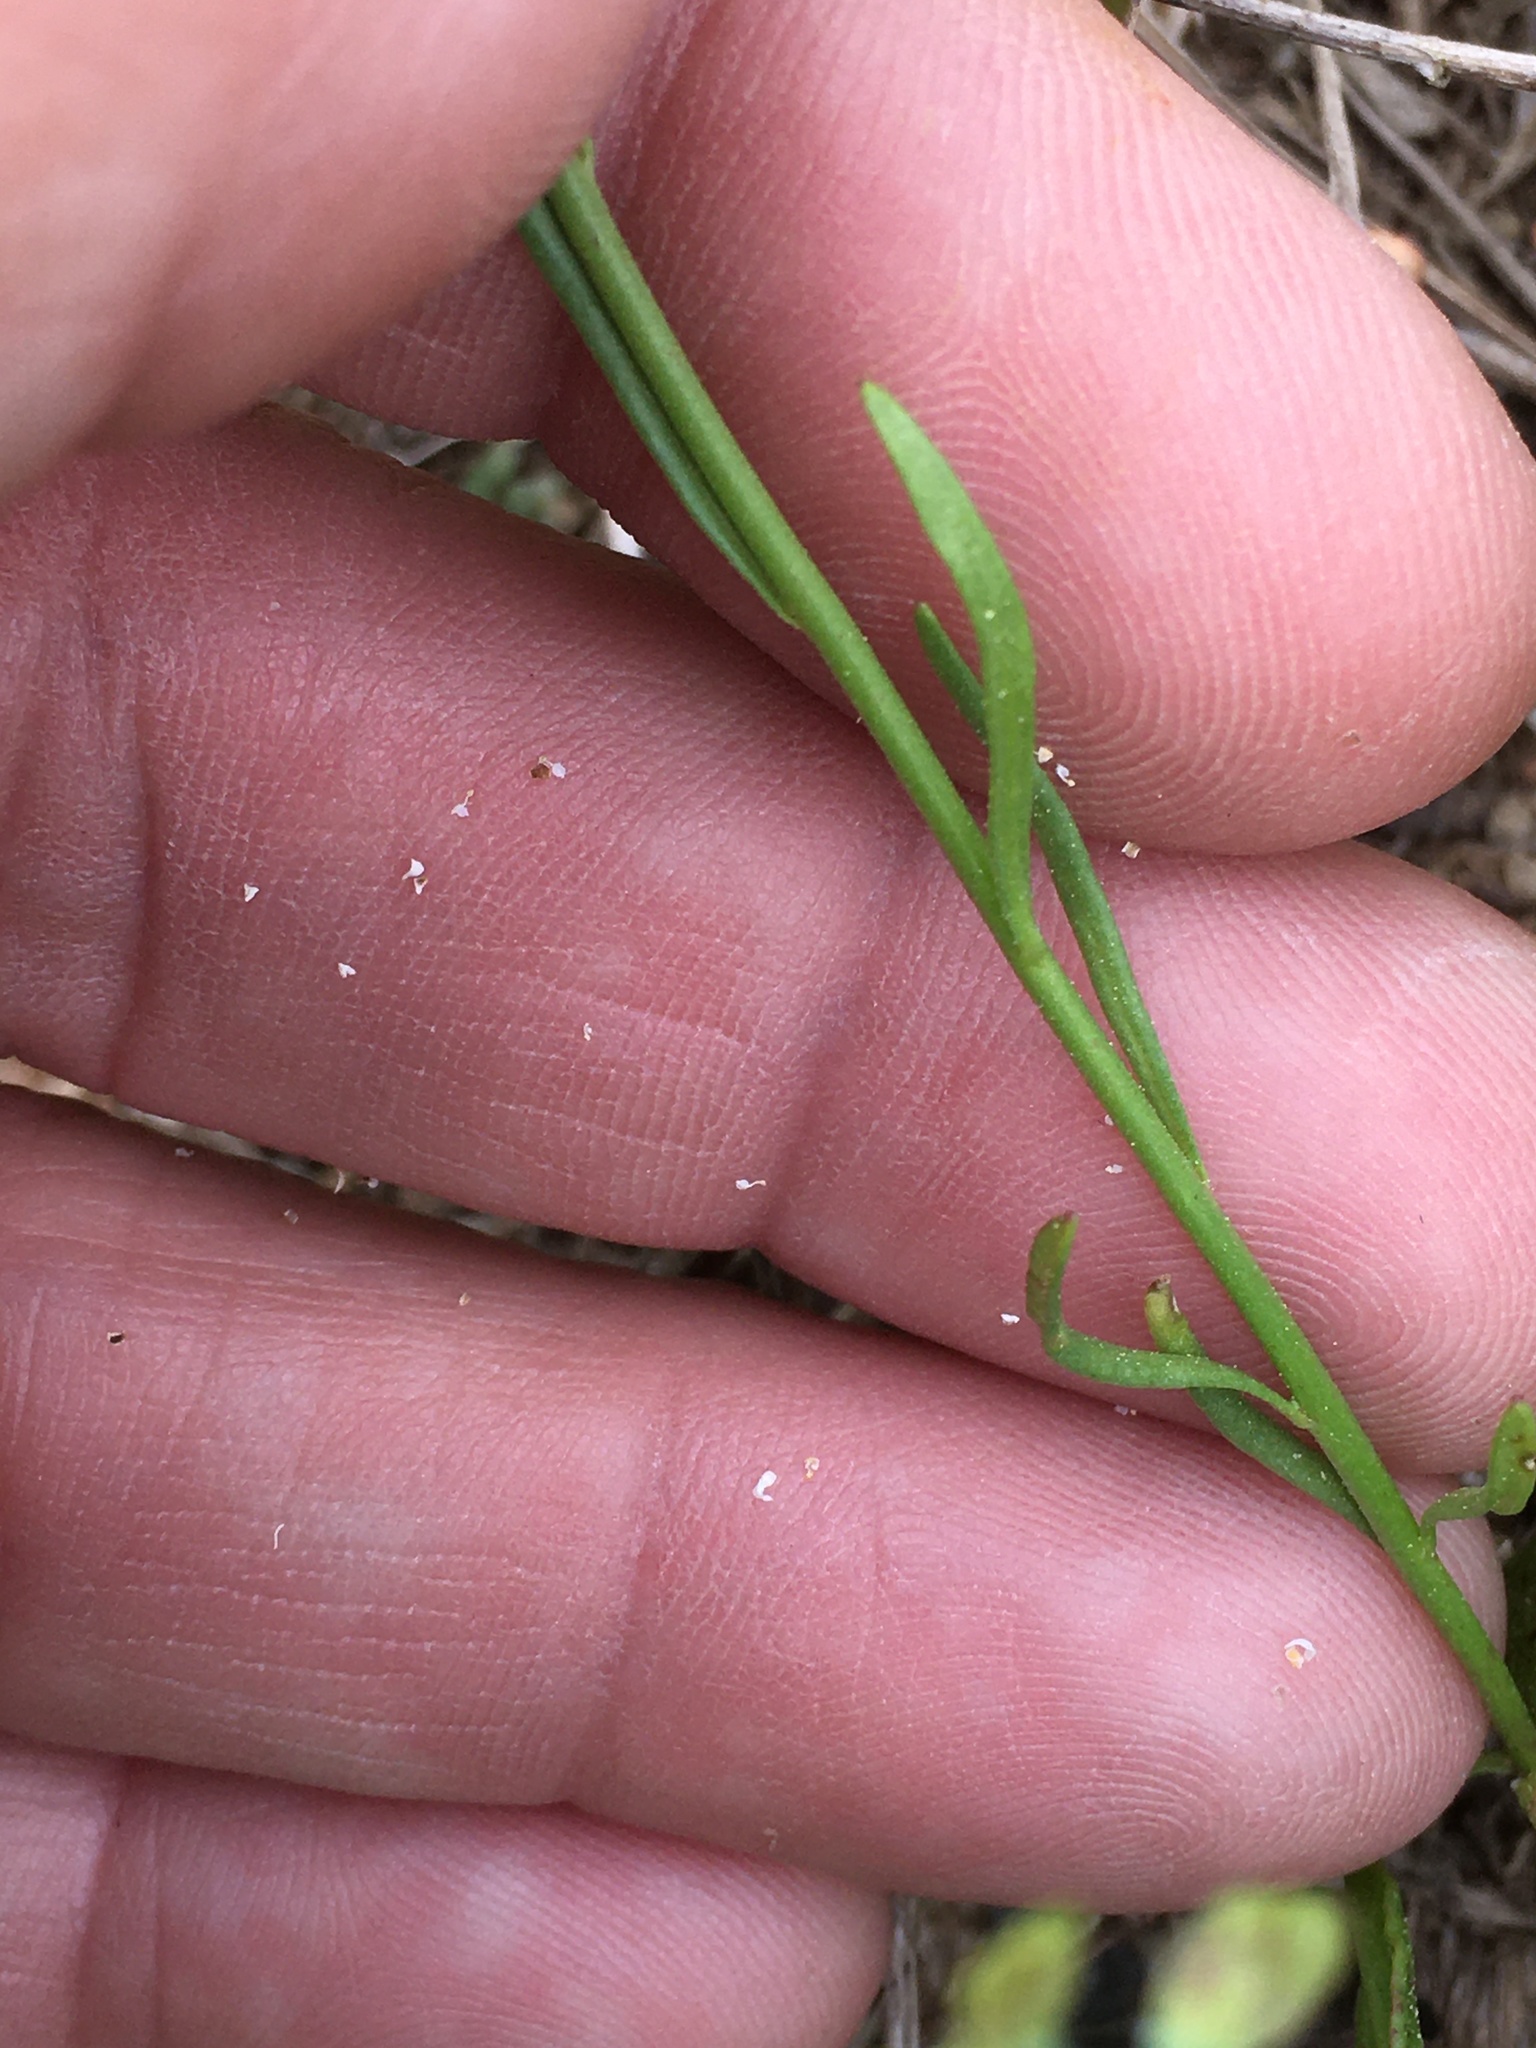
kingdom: Plantae
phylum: Tracheophyta
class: Magnoliopsida
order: Lamiales
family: Plantaginaceae
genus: Nuttallanthus
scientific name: Nuttallanthus canadensis
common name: Blue toadflax
